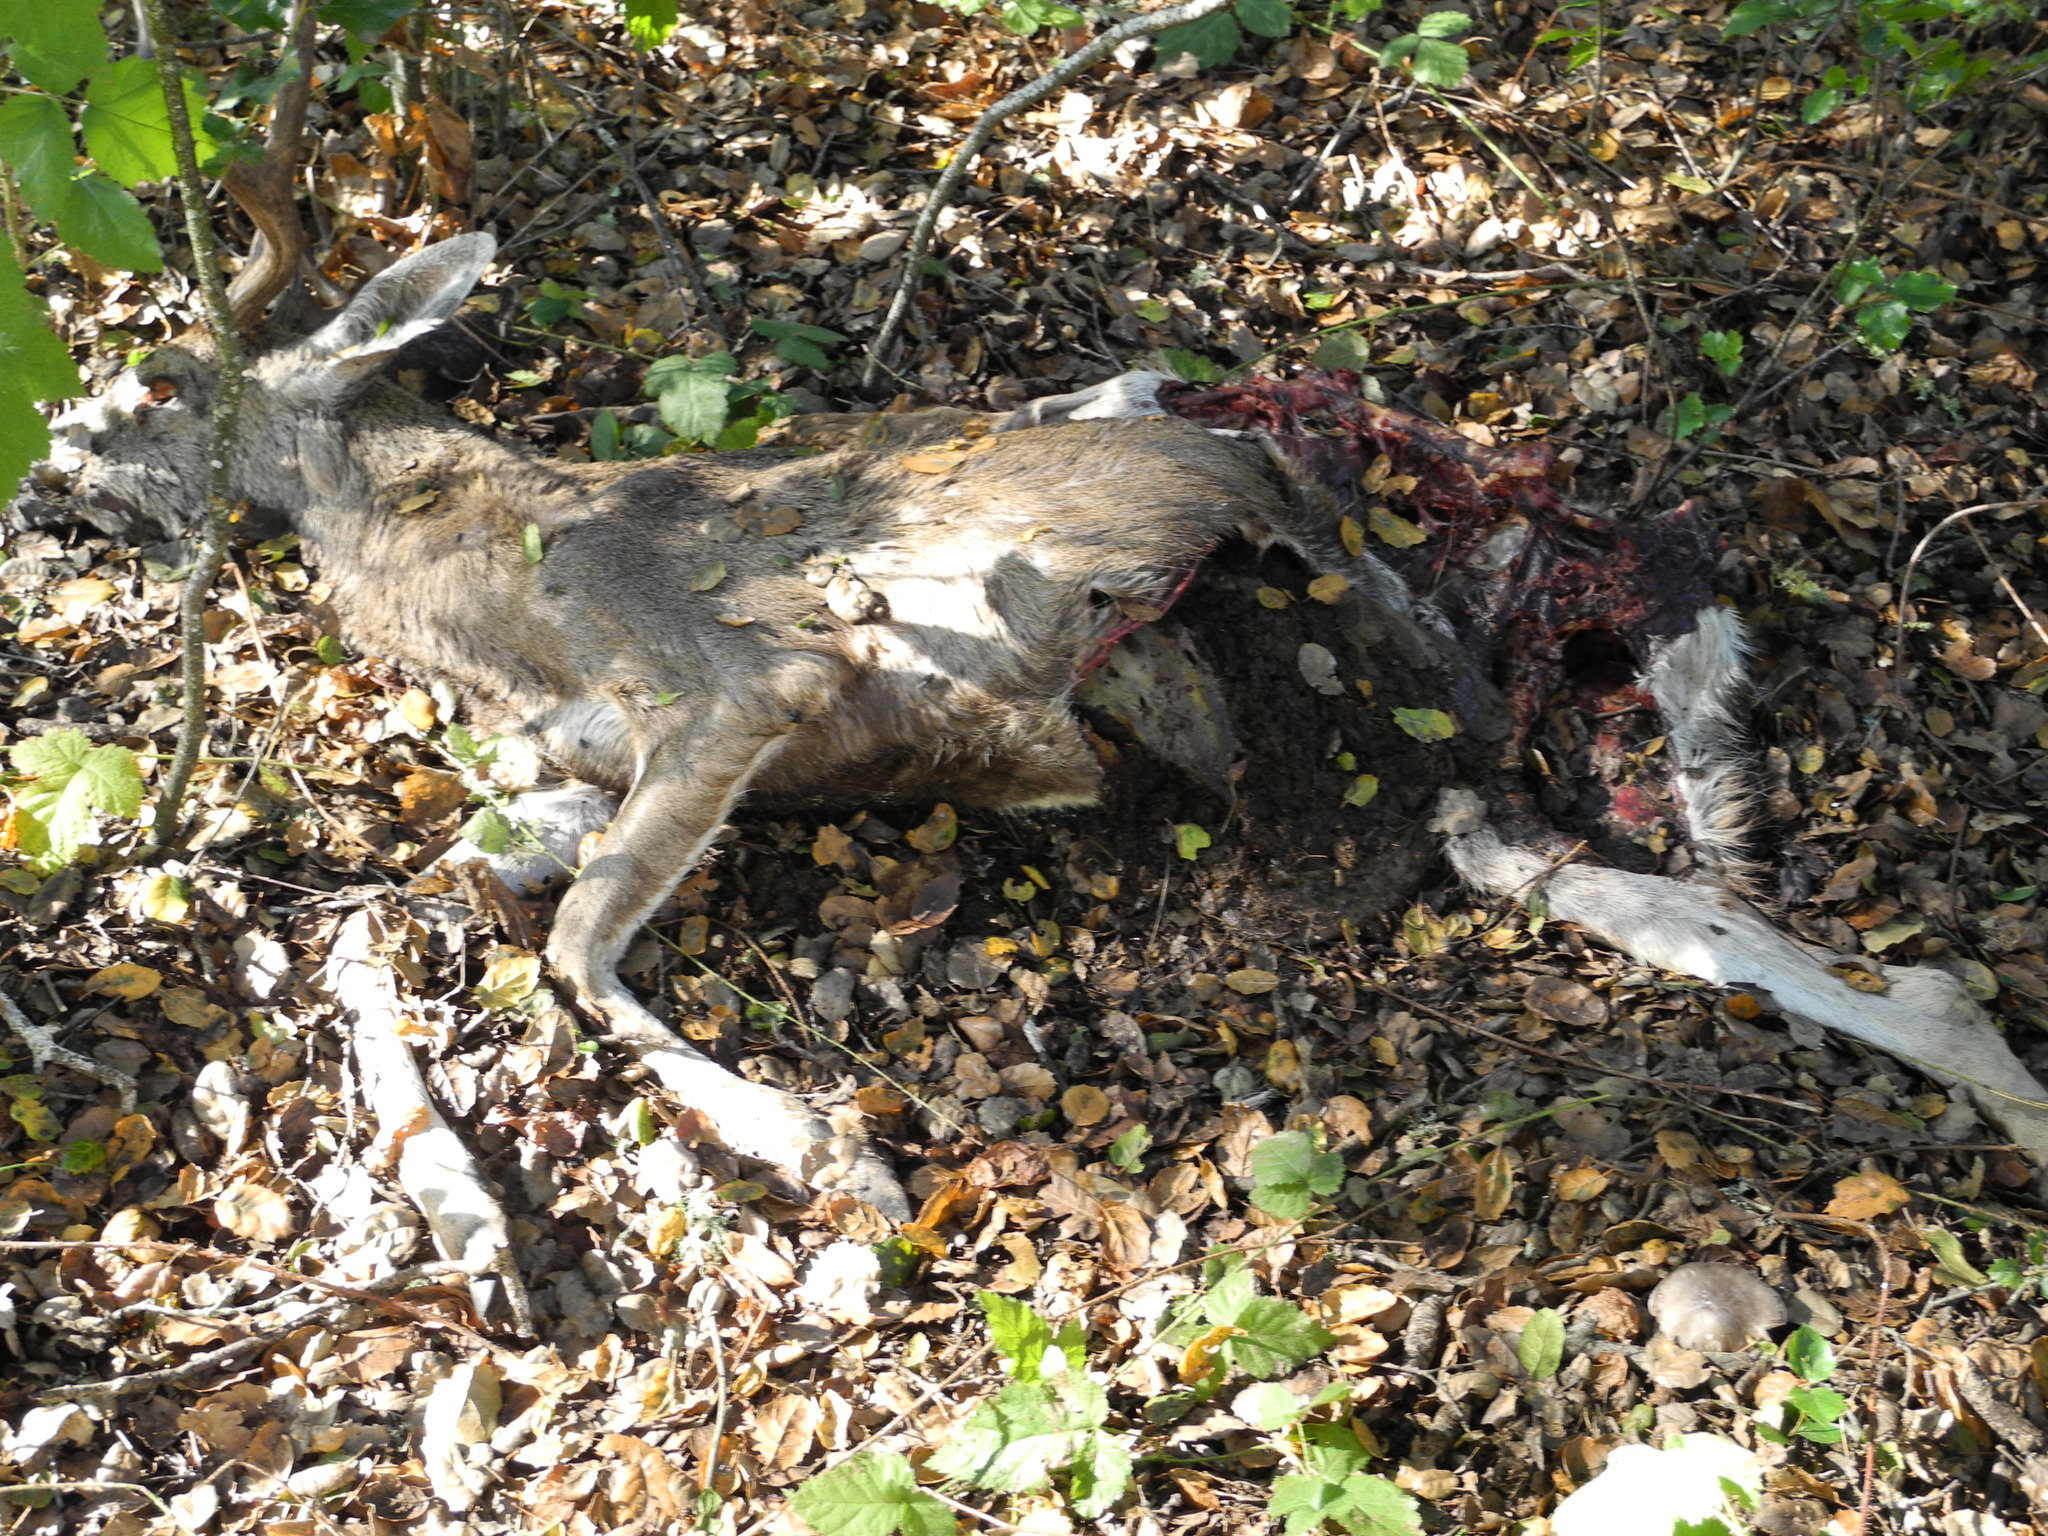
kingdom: Animalia
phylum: Chordata
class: Mammalia
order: Artiodactyla
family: Cervidae
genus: Odocoileus
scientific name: Odocoileus hemionus
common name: Mule deer
